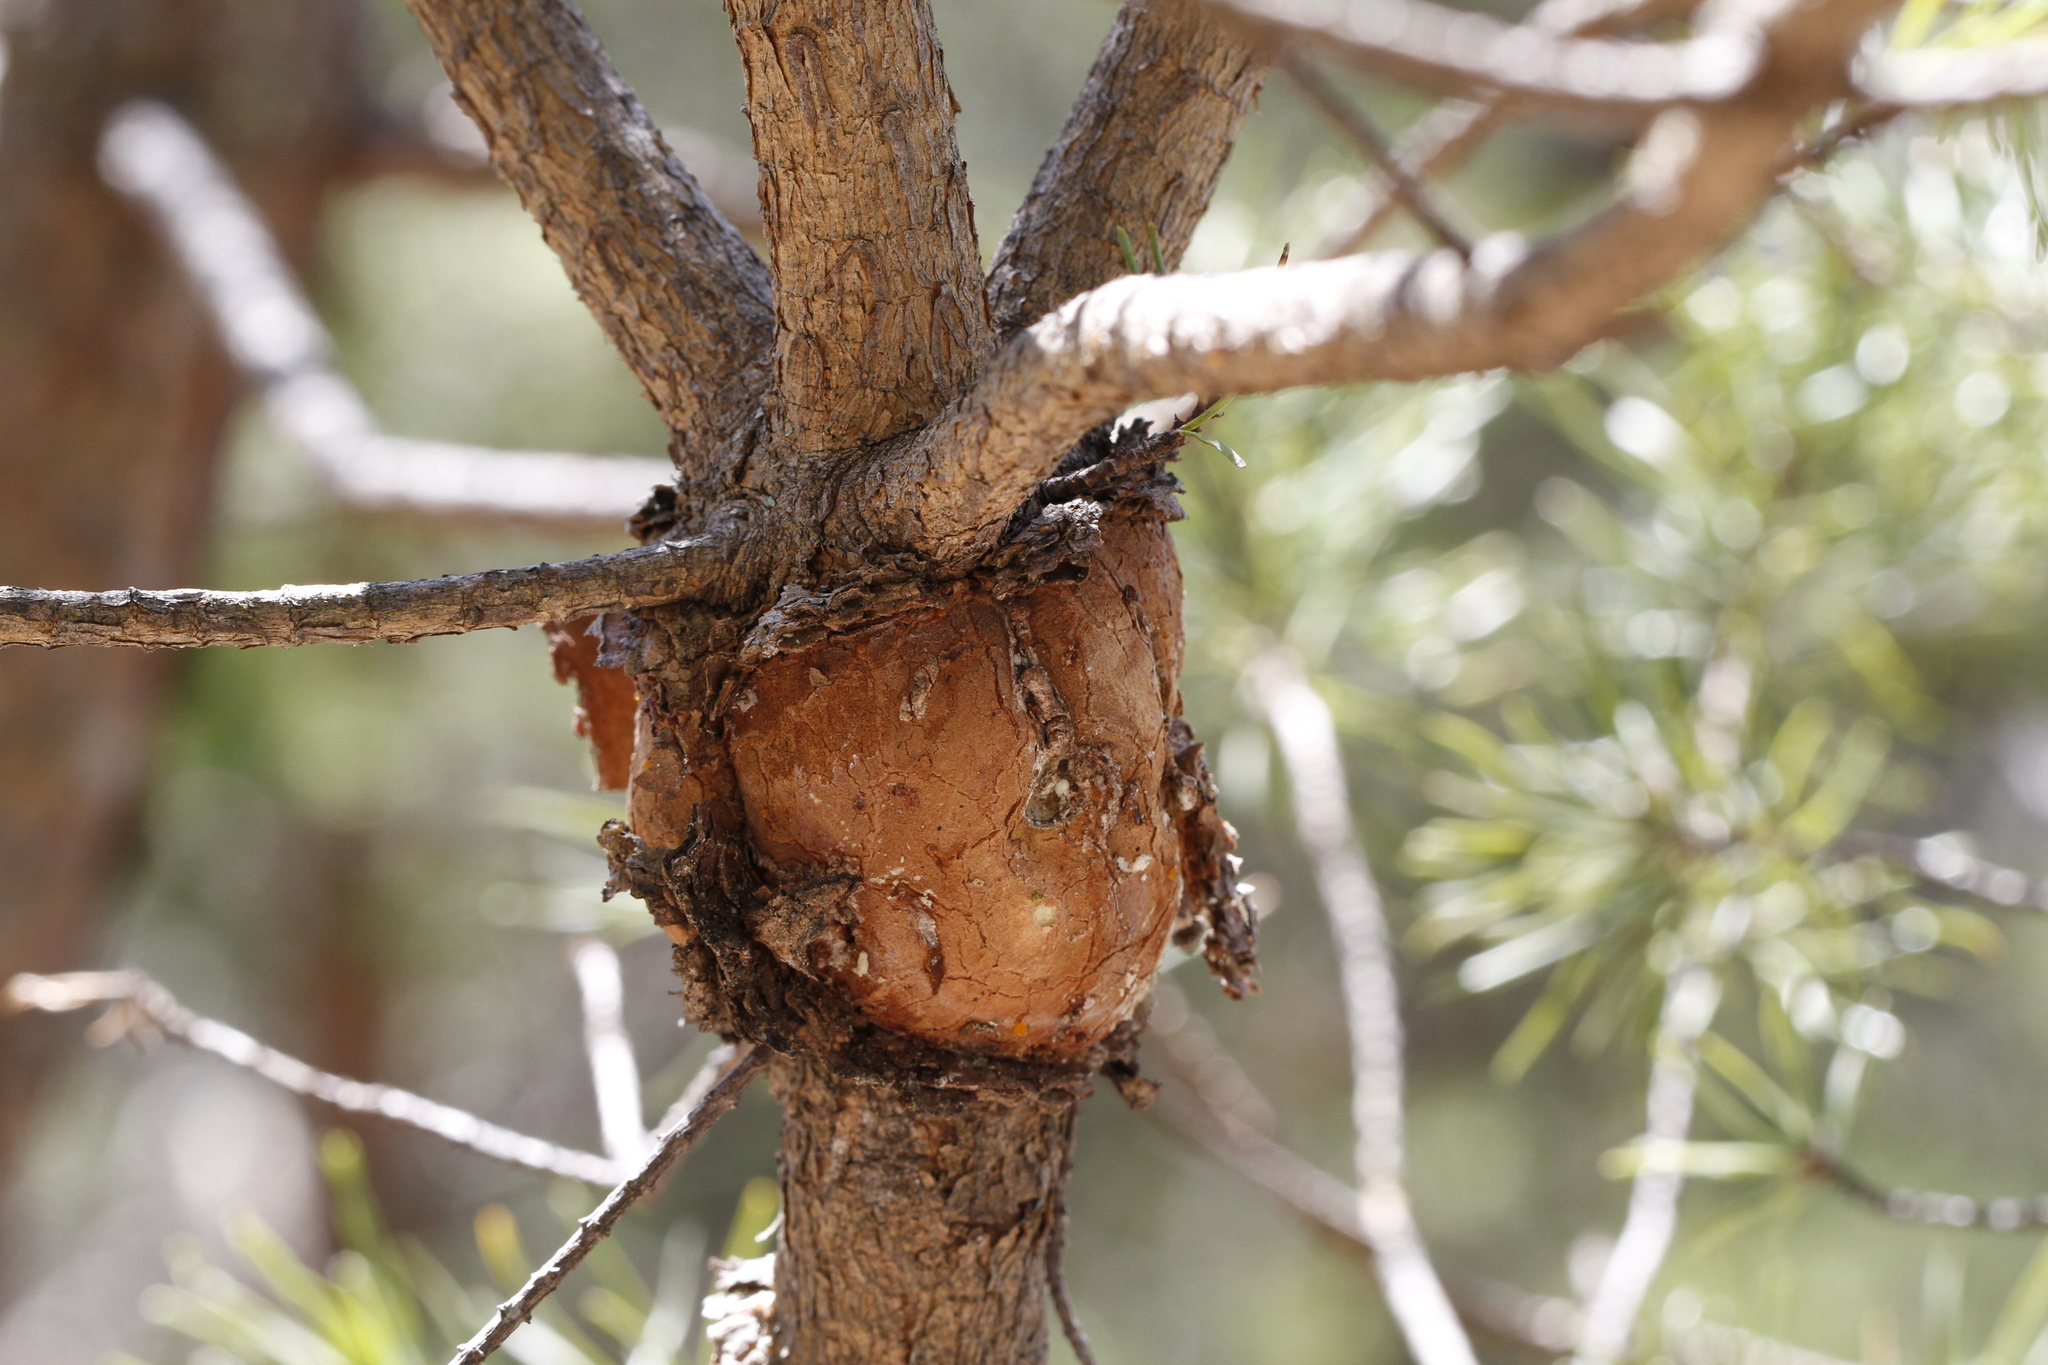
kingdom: Fungi
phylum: Basidiomycota
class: Pucciniomycetes
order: Pucciniales
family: Cronartiaceae
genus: Cronartium
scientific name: Cronartium quercuum
